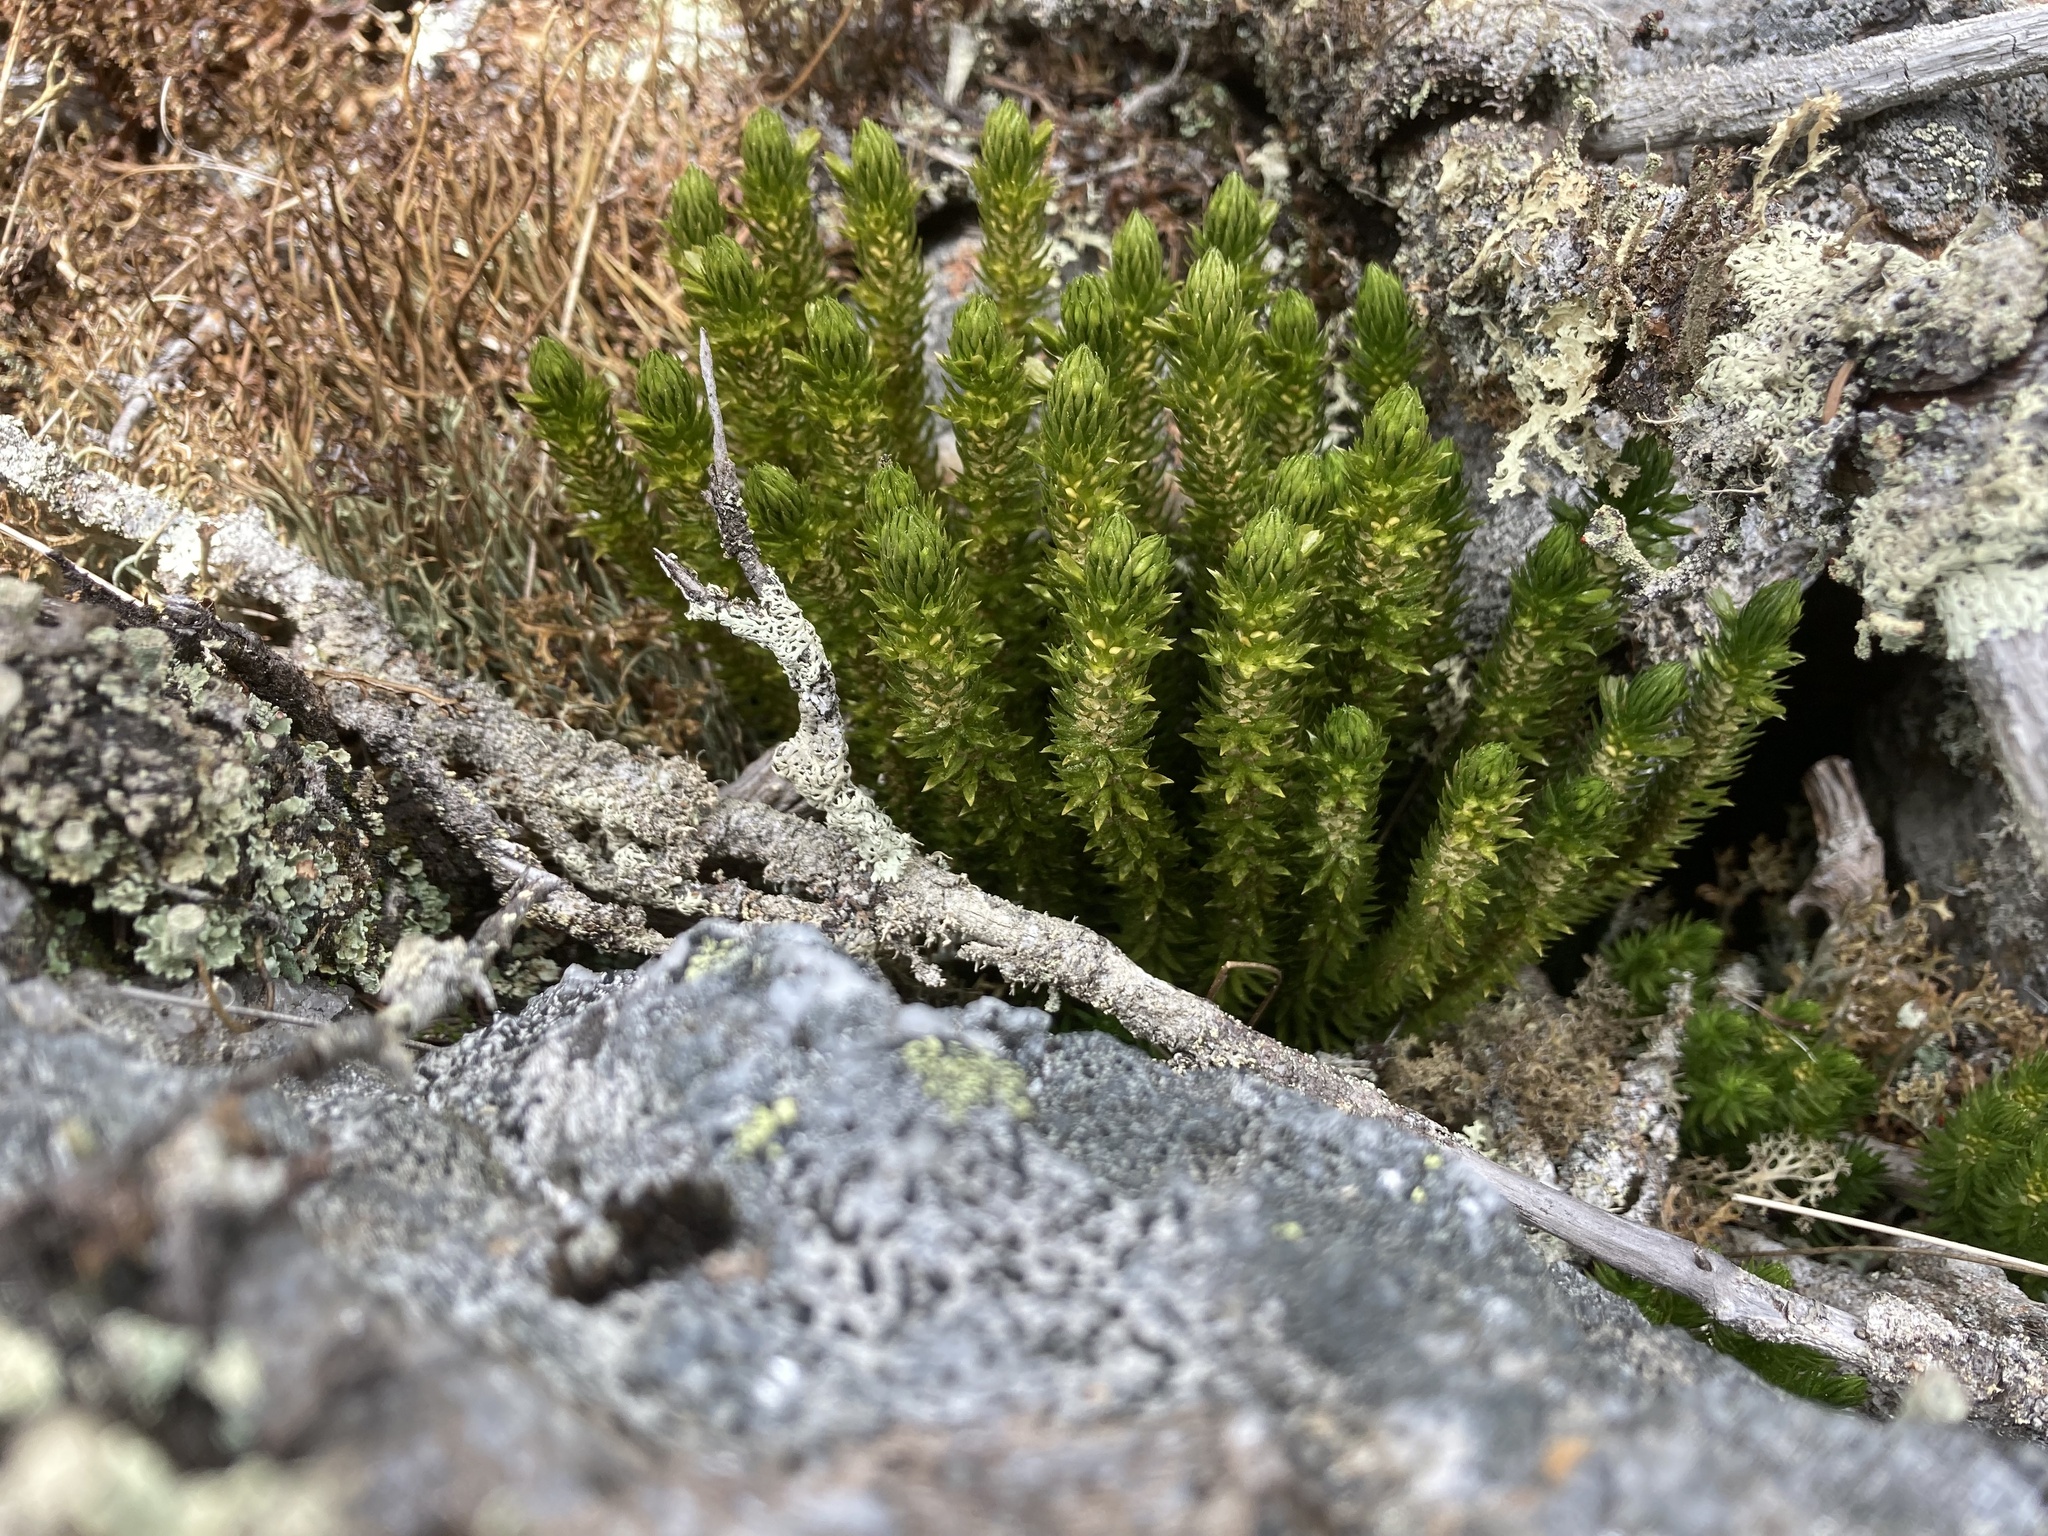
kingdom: Plantae
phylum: Tracheophyta
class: Lycopodiopsida
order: Lycopodiales
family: Lycopodiaceae
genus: Huperzia
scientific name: Huperzia selago
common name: Northern firmoss
